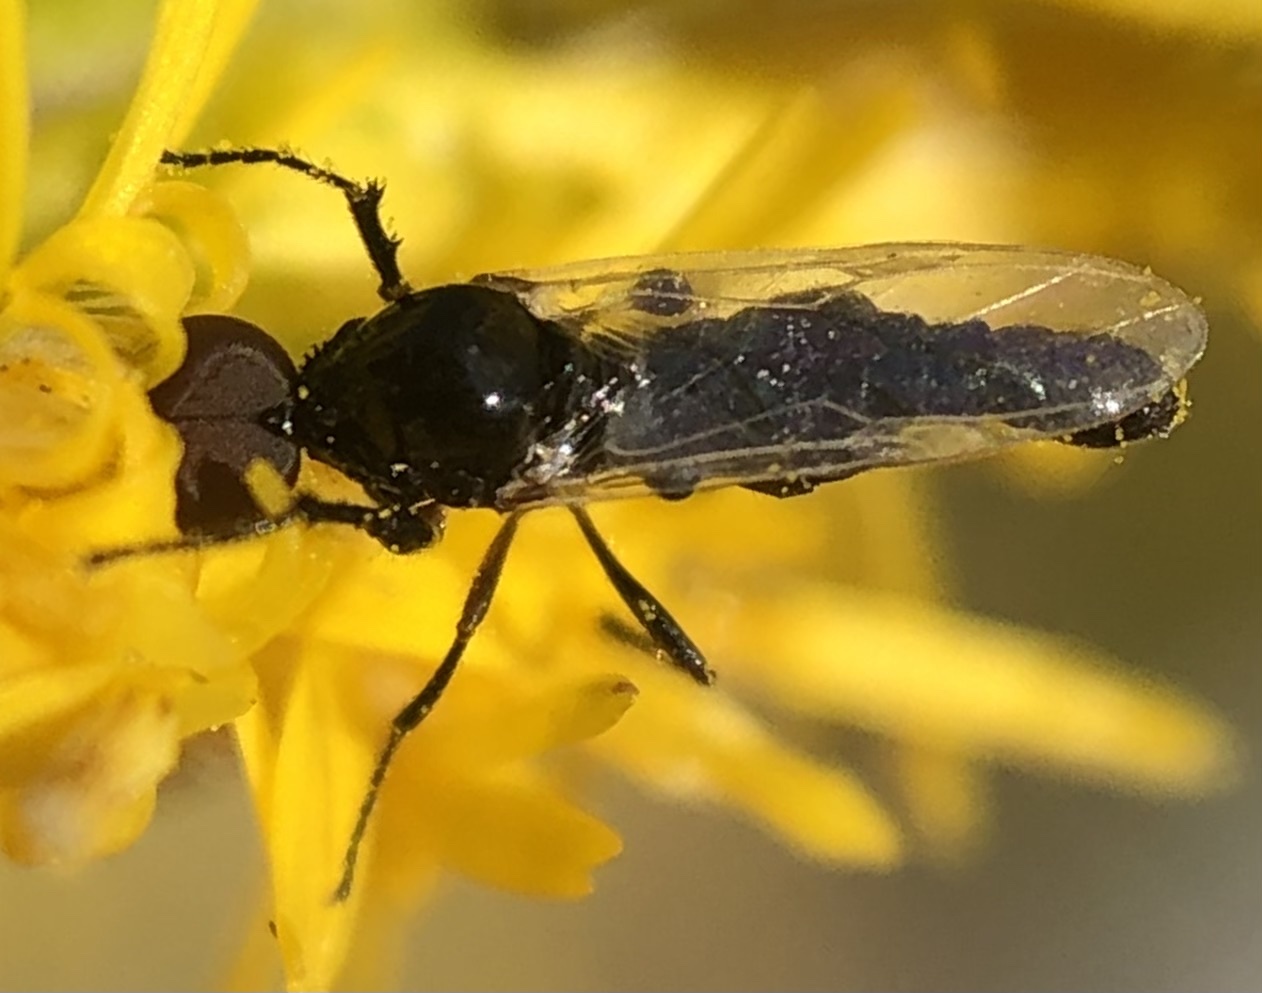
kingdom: Animalia
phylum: Arthropoda
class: Insecta
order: Diptera
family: Bibionidae
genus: Dilophus
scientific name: Dilophus
